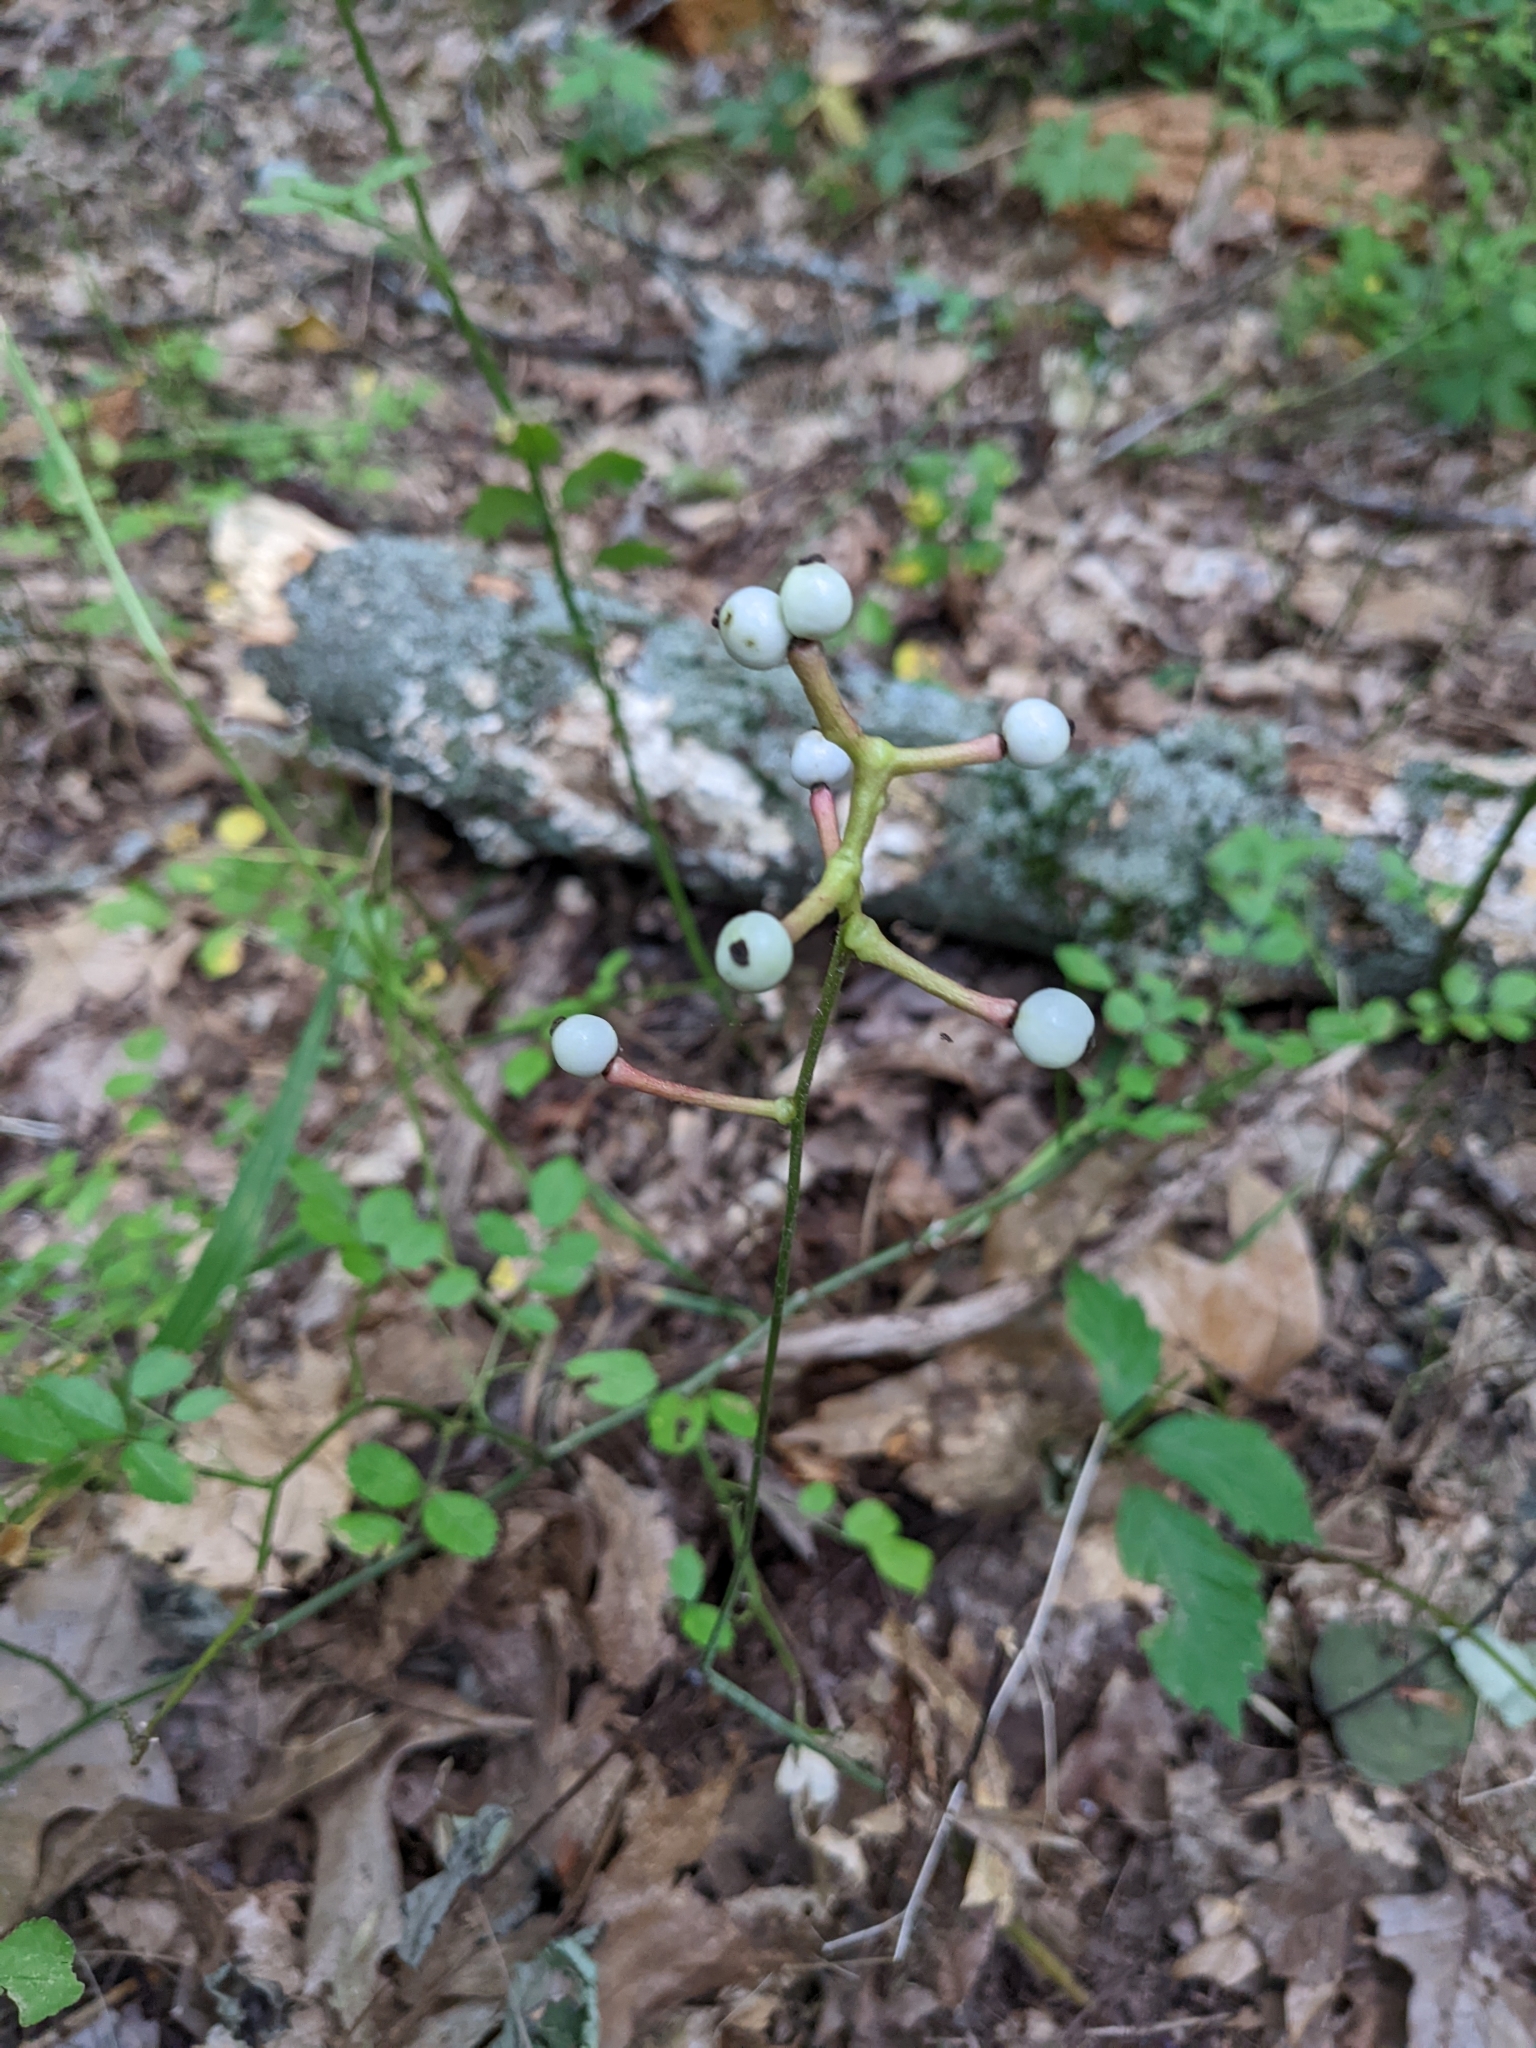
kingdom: Plantae
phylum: Tracheophyta
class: Magnoliopsida
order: Ranunculales
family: Ranunculaceae
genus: Actaea
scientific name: Actaea pachypoda
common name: Doll's-eyes
